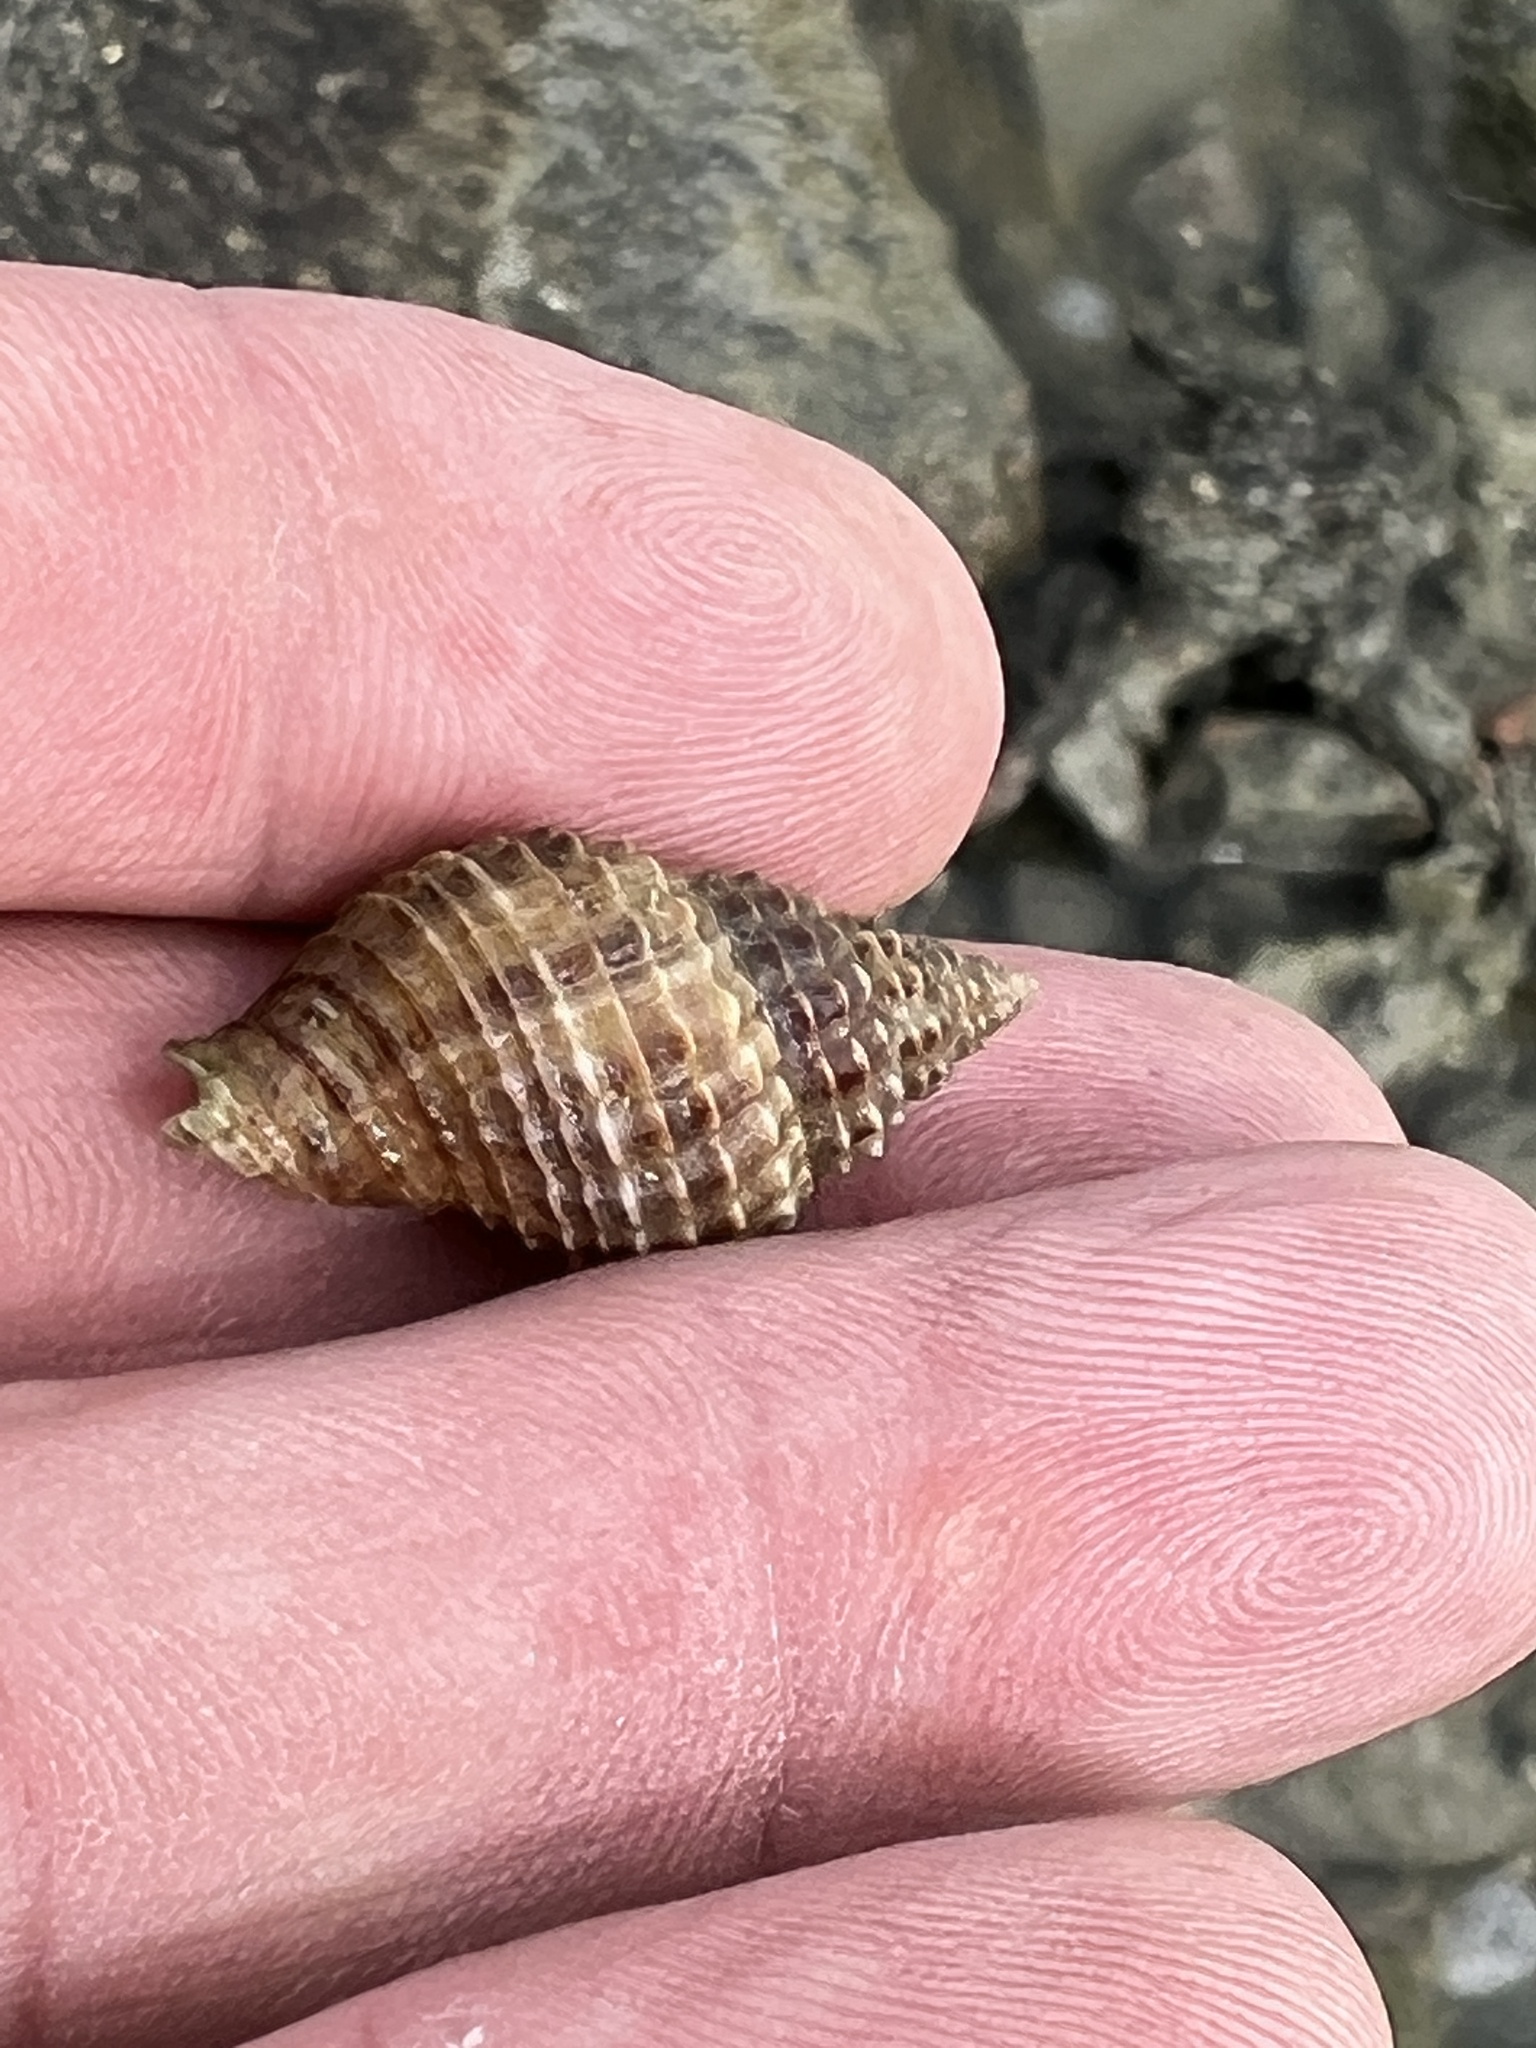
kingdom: Animalia
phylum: Mollusca
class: Gastropoda
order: Neogastropoda
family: Pisaniidae
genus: Solenosteira
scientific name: Solenosteira cancellaria
